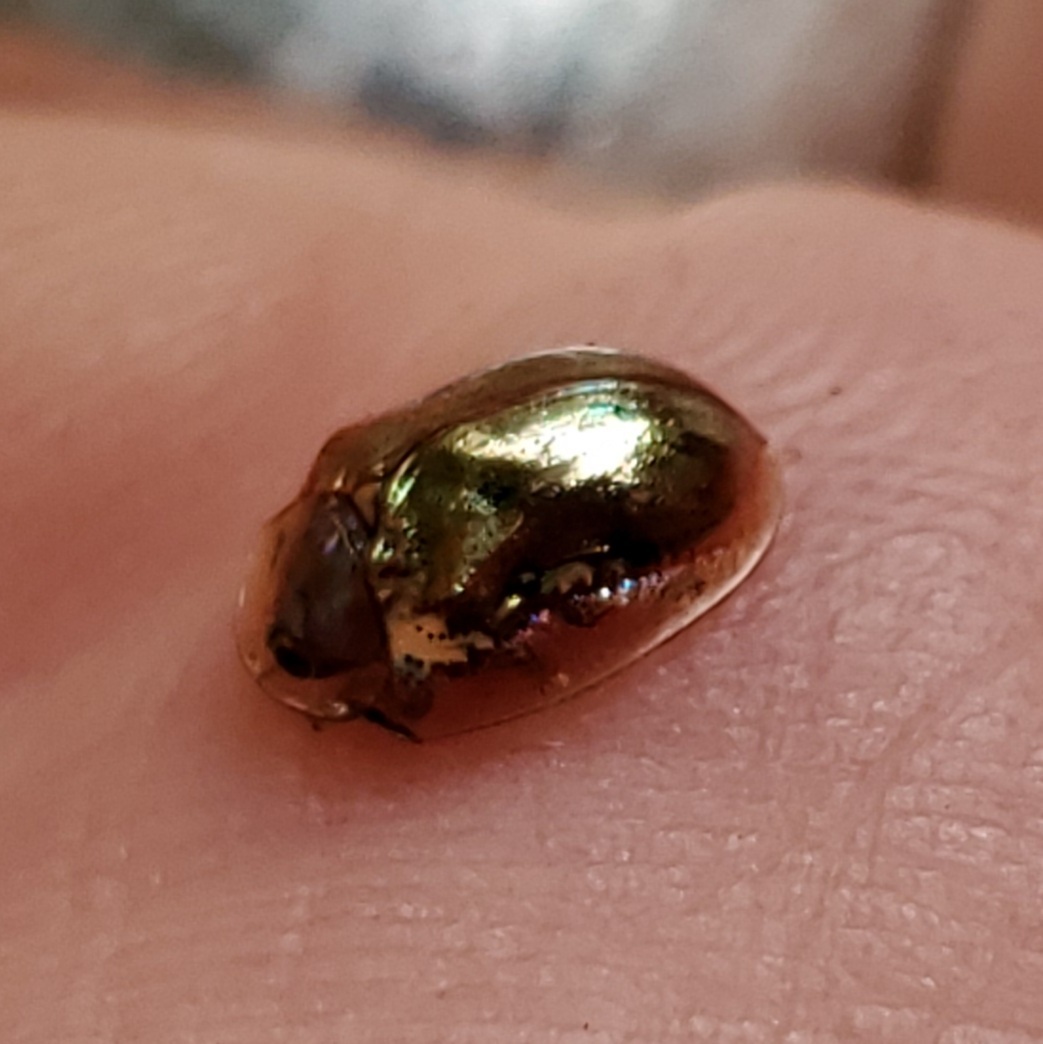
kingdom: Animalia
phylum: Arthropoda
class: Insecta
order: Coleoptera
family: Chrysomelidae
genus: Charidotella
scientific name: Charidotella sexpunctata
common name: Golden tortoise beetle
